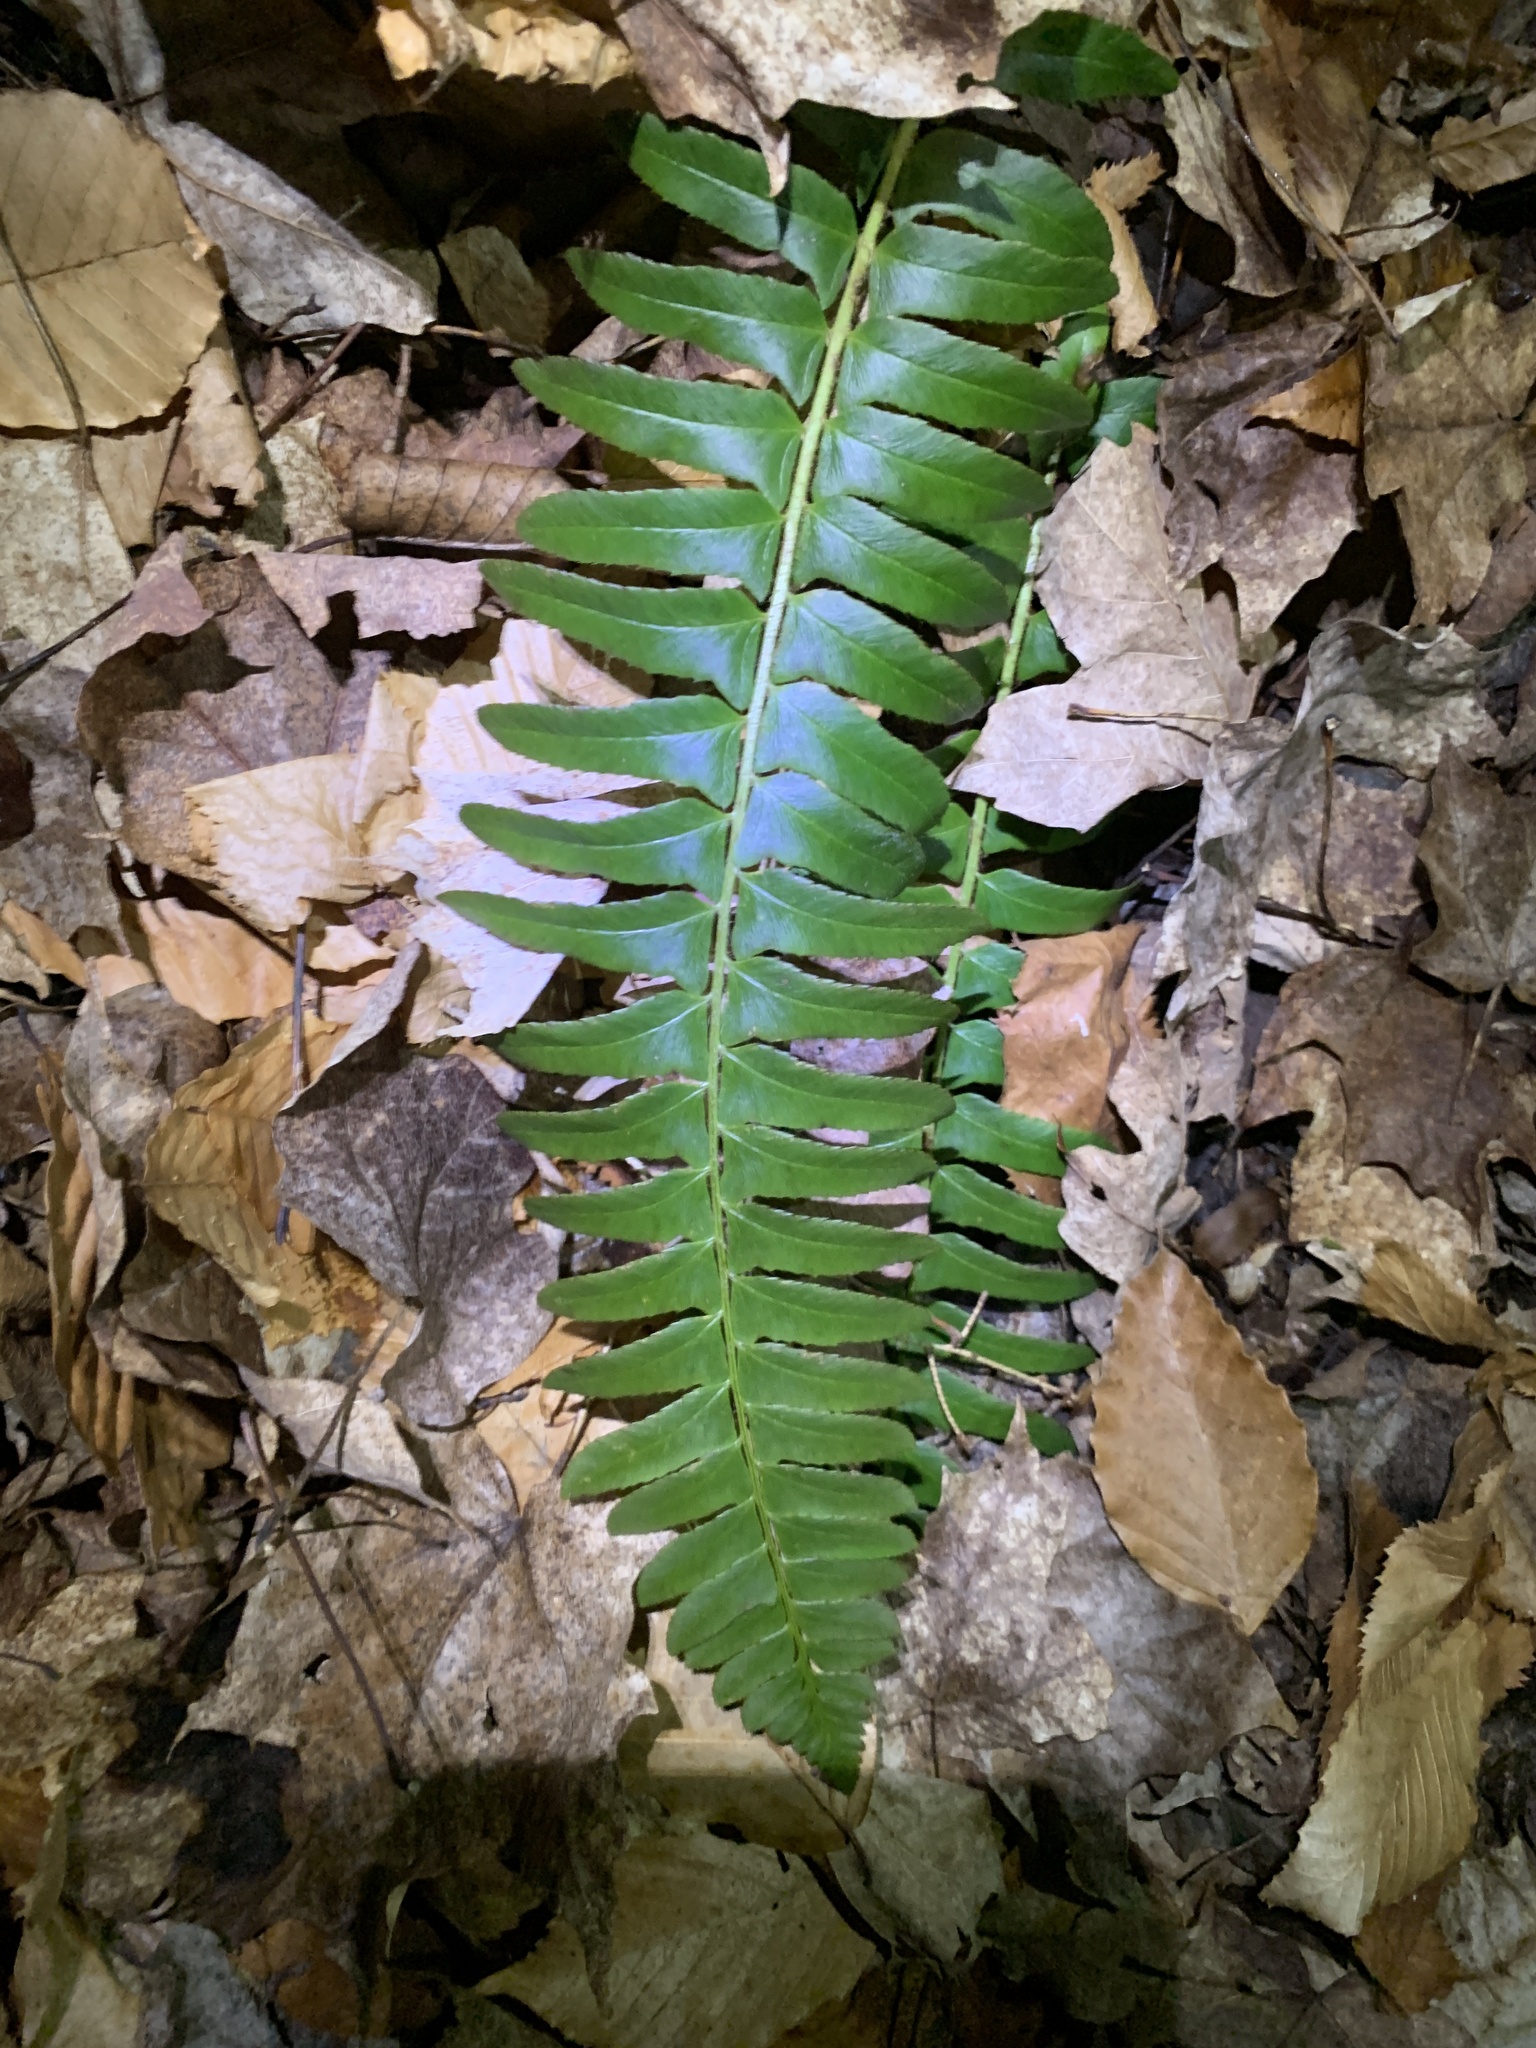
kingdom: Plantae
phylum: Tracheophyta
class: Polypodiopsida
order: Polypodiales
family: Dryopteridaceae
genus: Polystichum
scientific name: Polystichum acrostichoides
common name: Christmas fern
